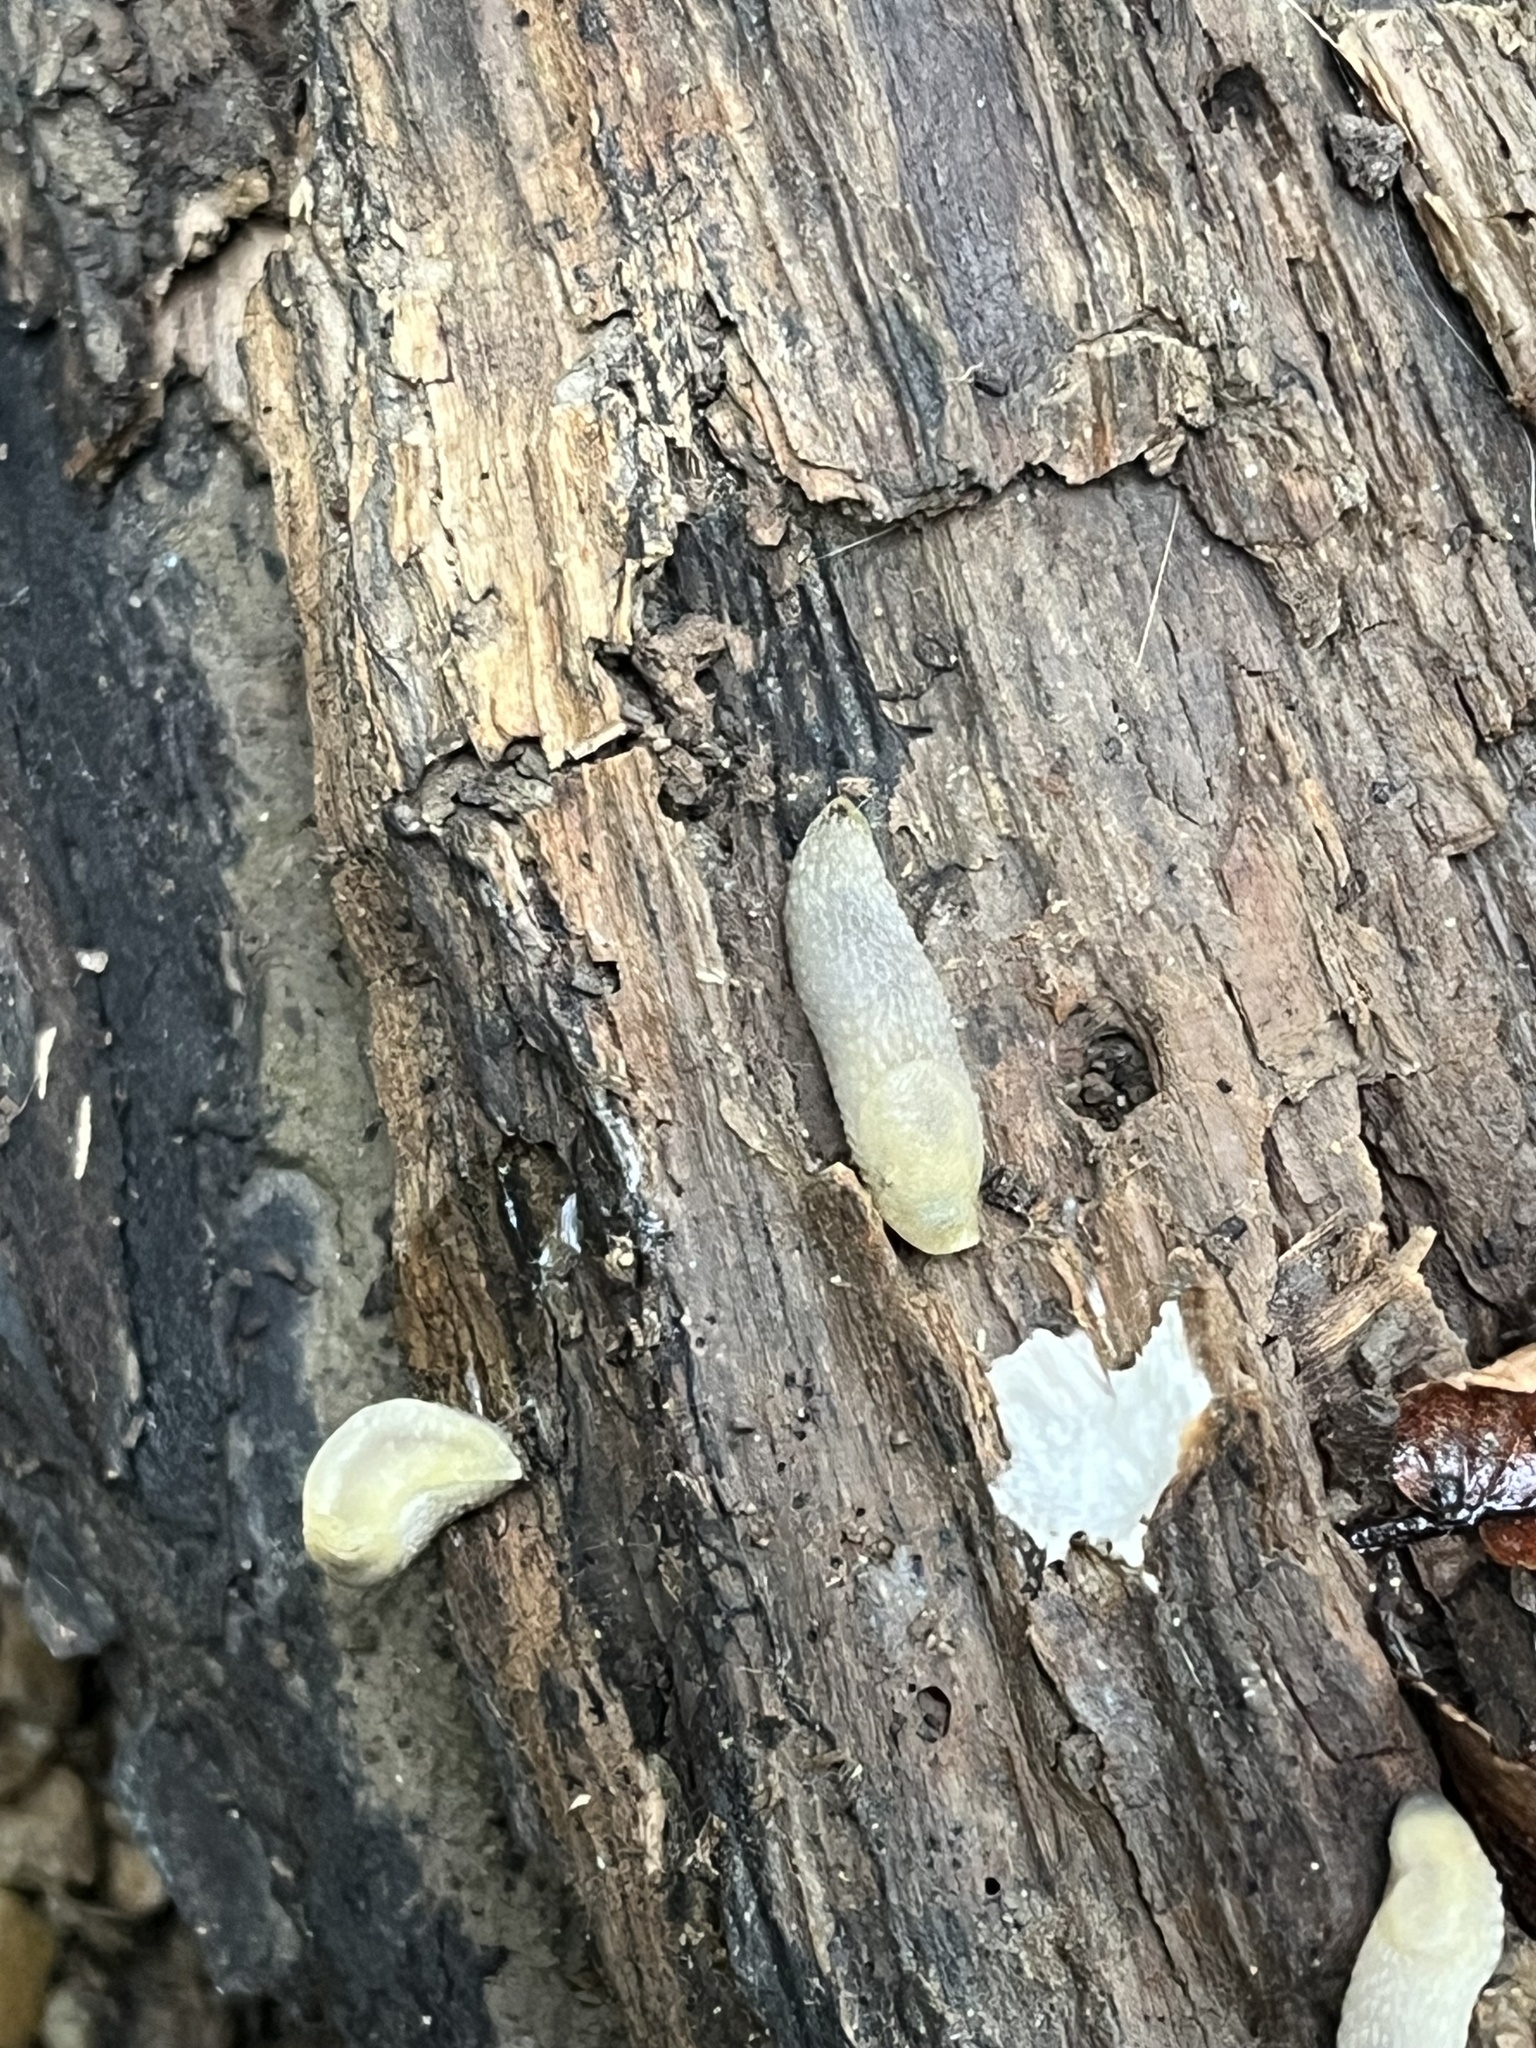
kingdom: Animalia
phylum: Mollusca
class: Gastropoda
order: Stylommatophora
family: Arionidae
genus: Arion
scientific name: Arion intermedius
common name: Hedgehog slug
